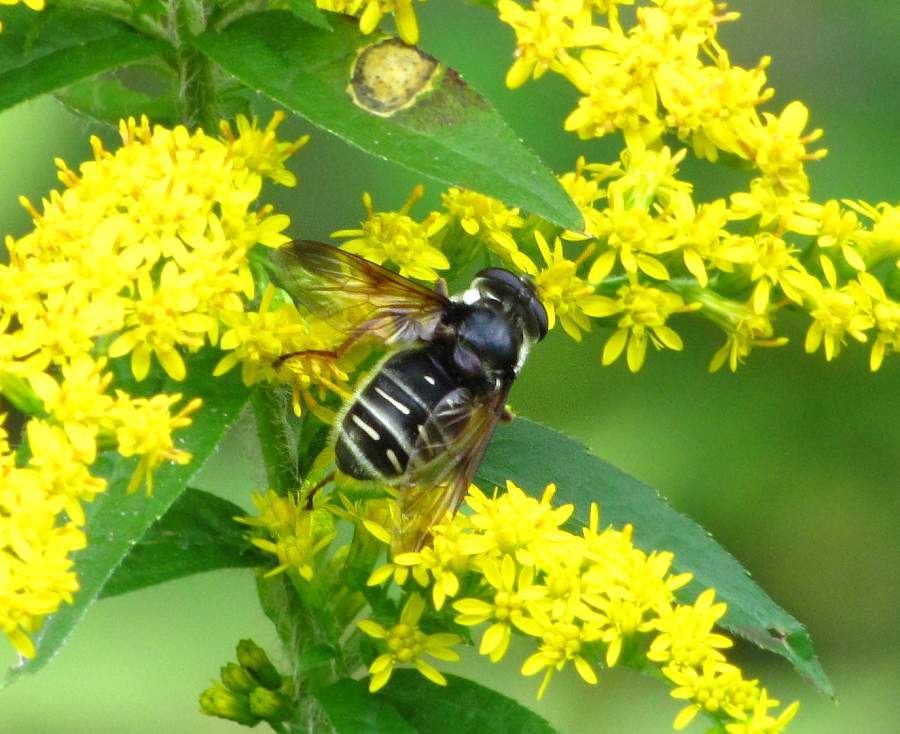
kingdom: Animalia
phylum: Arthropoda
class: Insecta
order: Diptera
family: Syrphidae
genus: Sericomyia
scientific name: Sericomyia militaris
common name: Narrow-banded pond fly
